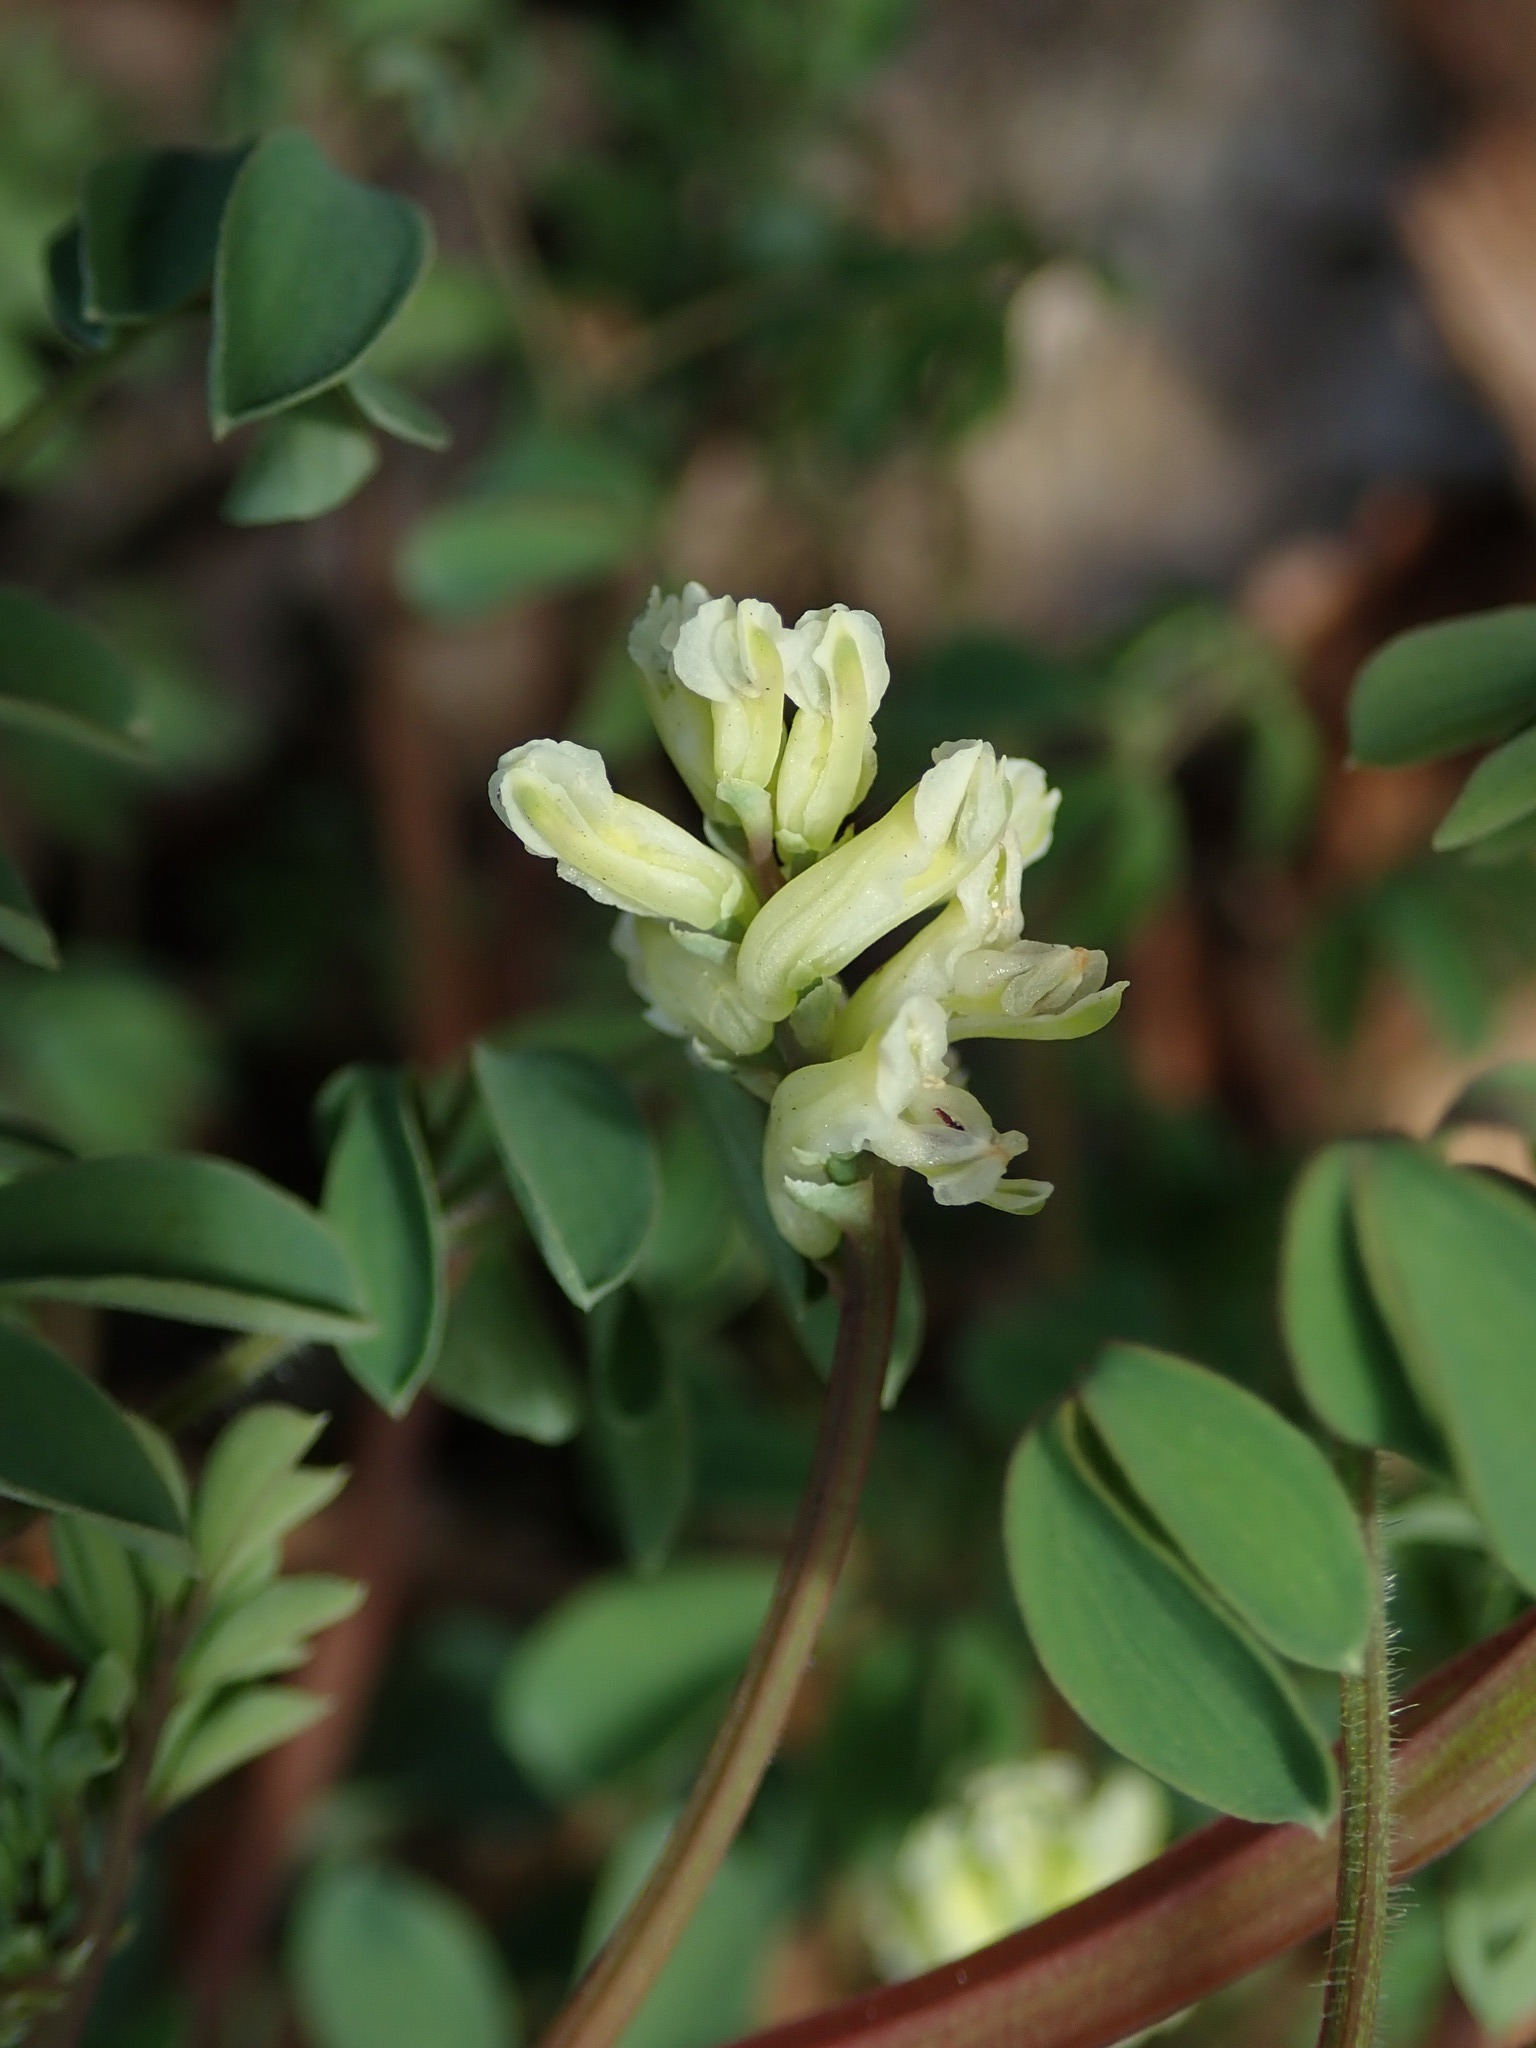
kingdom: Plantae
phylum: Tracheophyta
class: Magnoliopsida
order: Ranunculales
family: Papaveraceae
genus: Ceratocapnos
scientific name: Ceratocapnos claviculata
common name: Climbing corydalis
